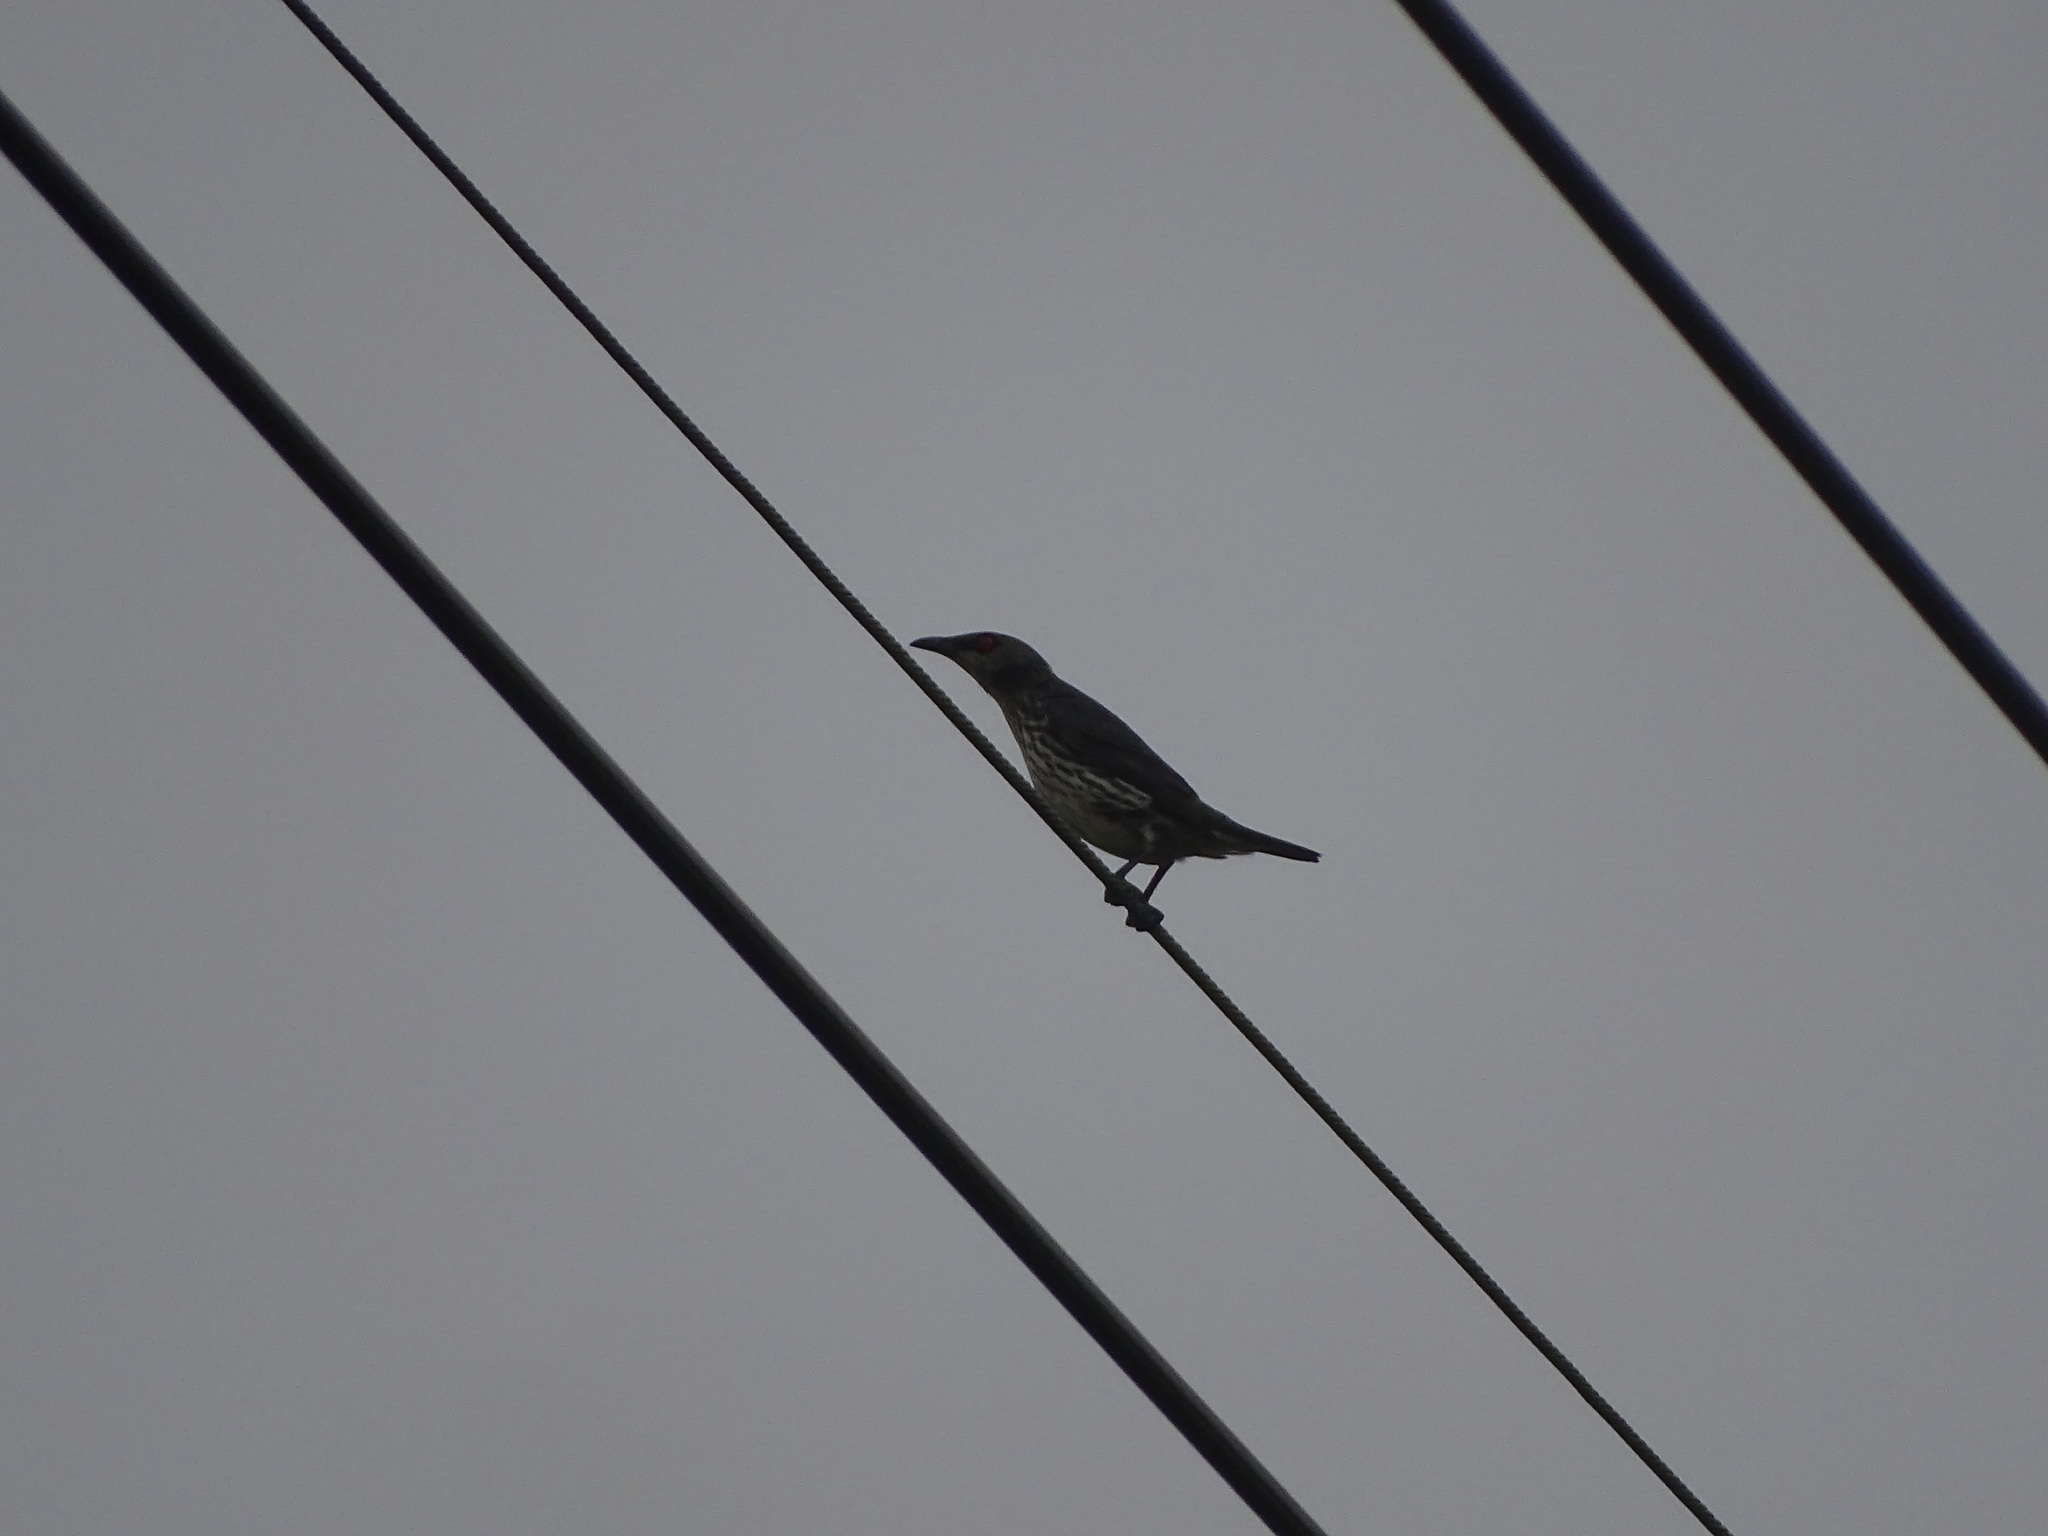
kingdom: Animalia
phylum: Chordata
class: Aves
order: Passeriformes
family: Sturnidae
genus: Aplonis
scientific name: Aplonis panayensis
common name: Asian glossy starling
